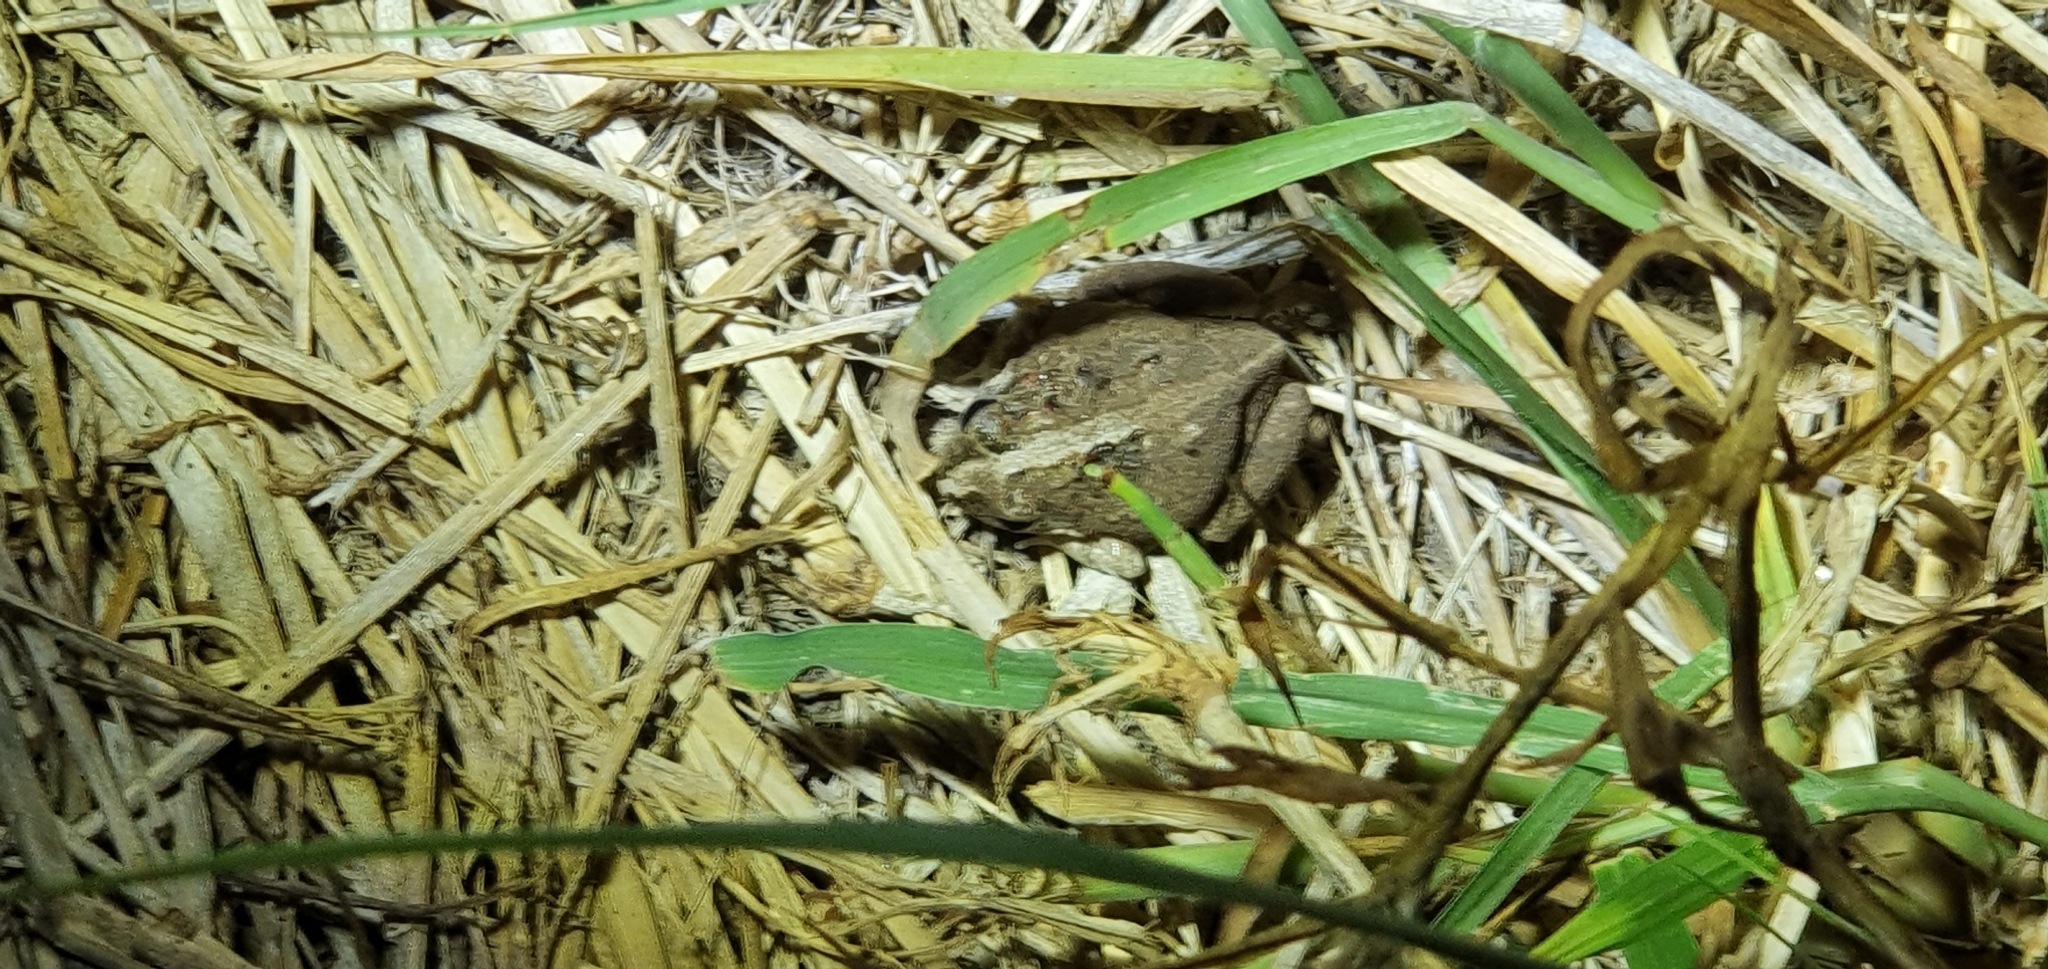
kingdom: Animalia
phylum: Chordata
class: Amphibia
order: Anura
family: Limnodynastidae
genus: Platyplectrum
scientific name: Platyplectrum ornatum
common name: Ornate burrowing frog
